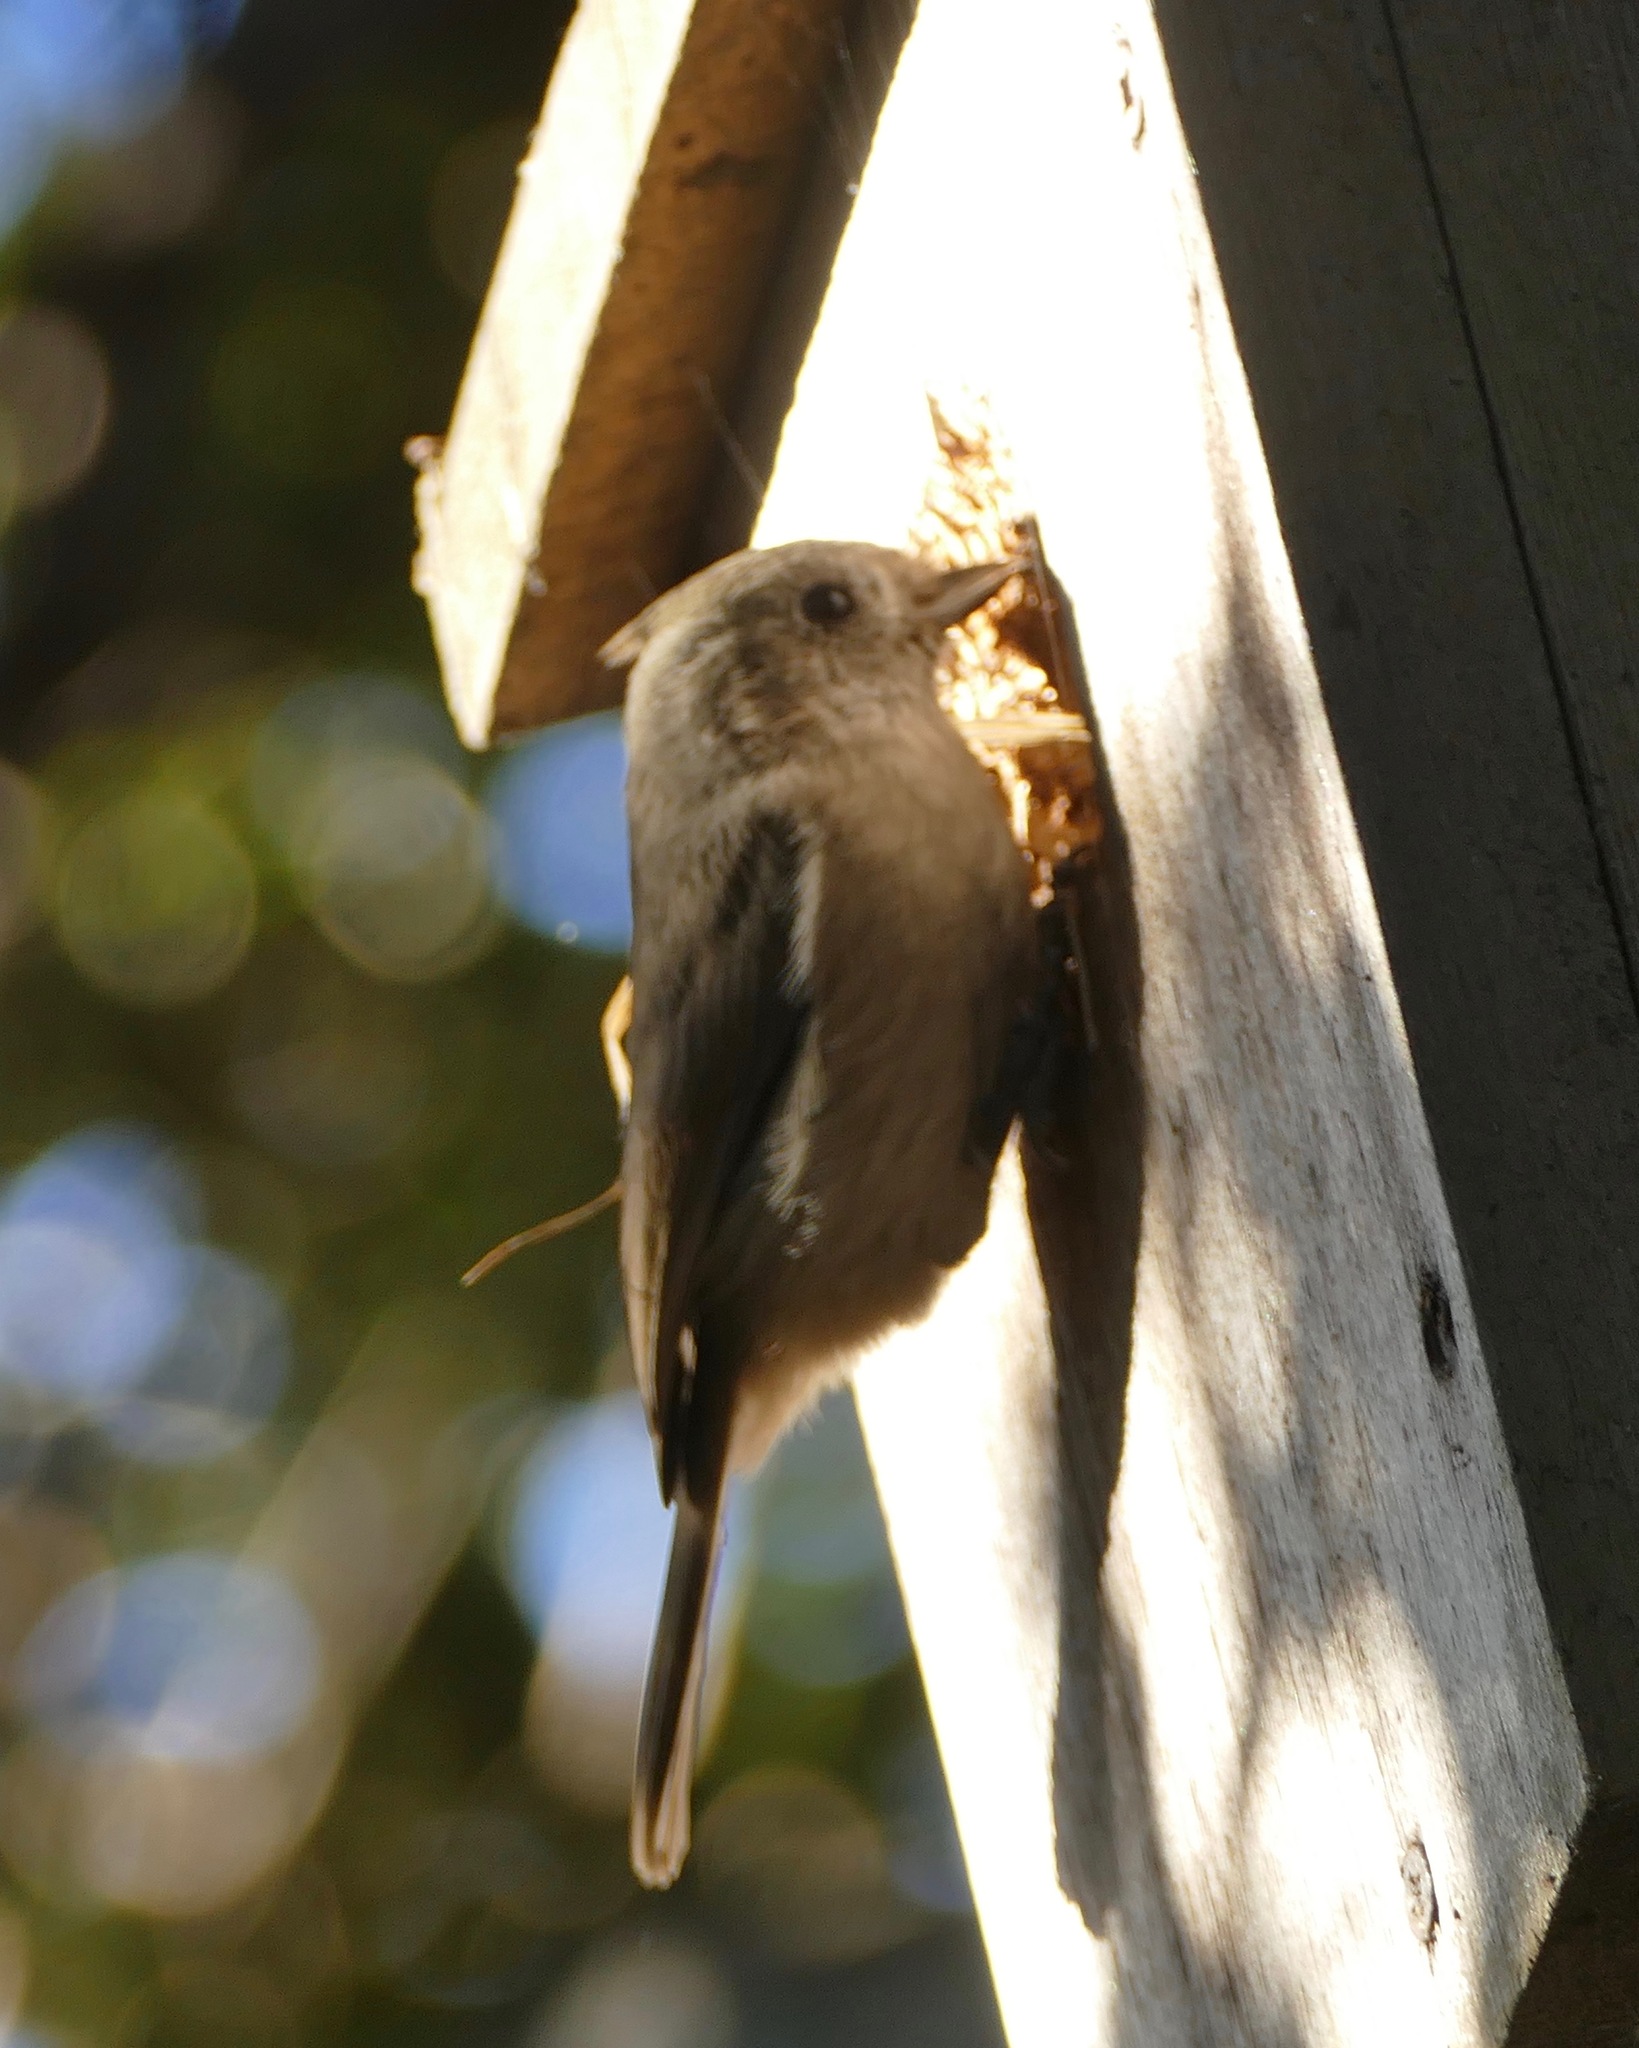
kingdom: Animalia
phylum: Chordata
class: Aves
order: Passeriformes
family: Paridae
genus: Baeolophus
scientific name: Baeolophus inornatus
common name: Oak titmouse
